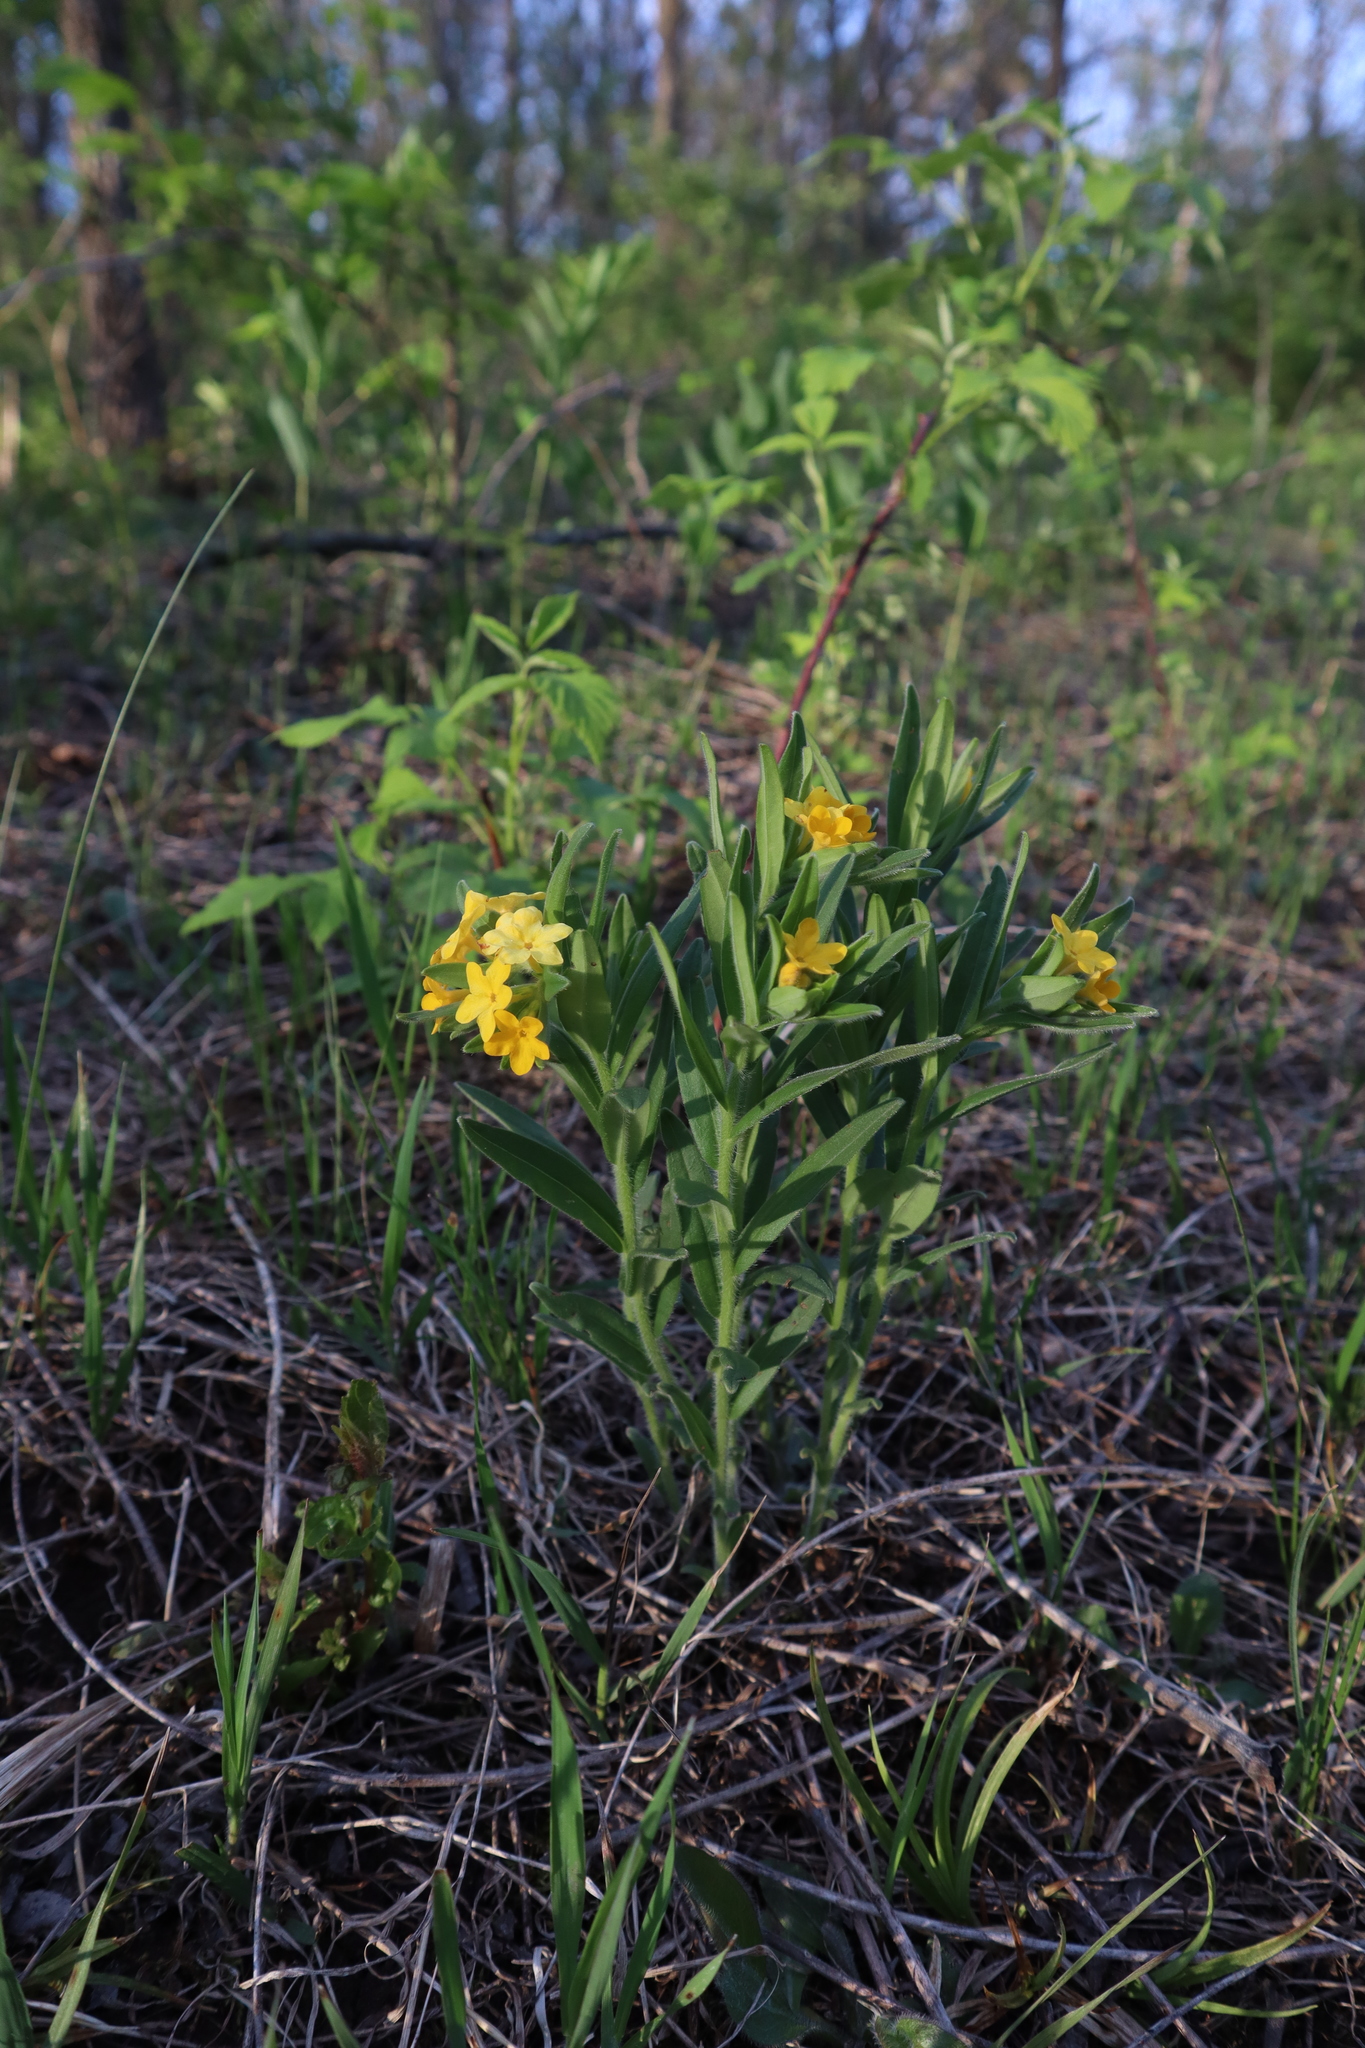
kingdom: Plantae
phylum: Tracheophyta
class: Magnoliopsida
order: Boraginales
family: Boraginaceae
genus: Lithospermum
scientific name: Lithospermum canescens
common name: Hoary puccoon
